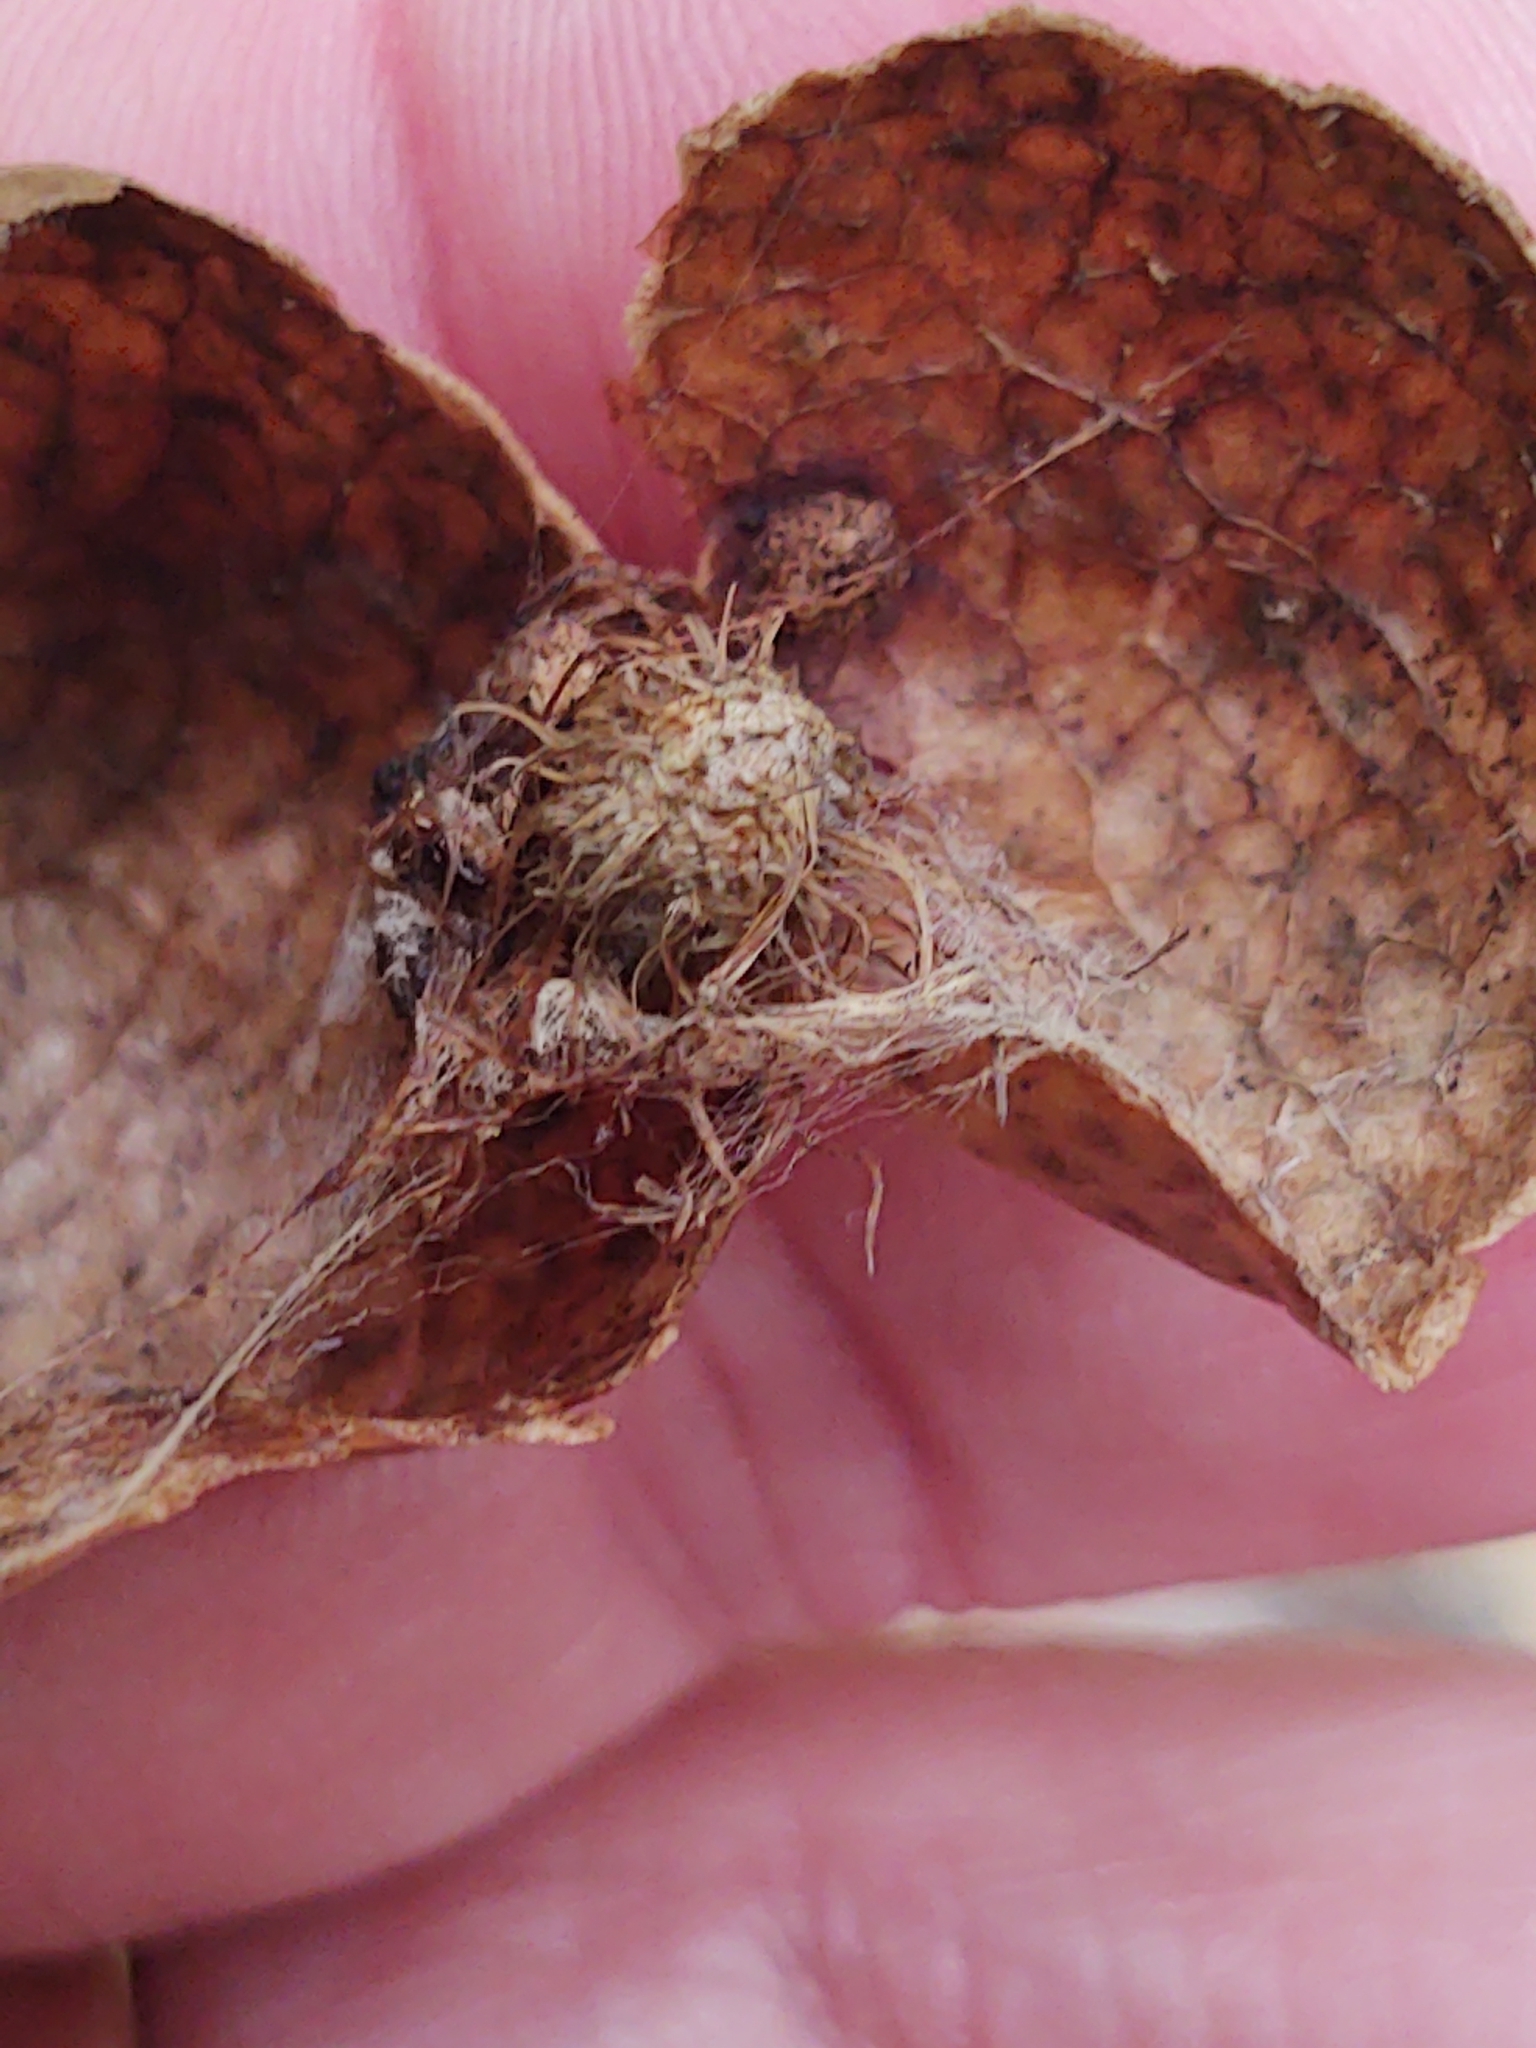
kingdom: Animalia
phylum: Arthropoda
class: Insecta
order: Hymenoptera
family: Cynipidae
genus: Amphibolips
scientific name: Amphibolips
